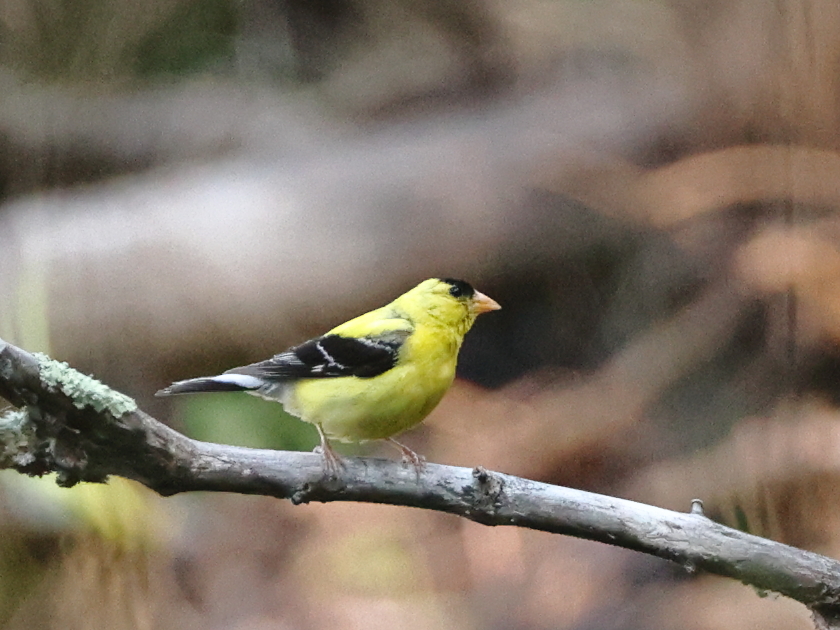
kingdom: Animalia
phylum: Chordata
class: Aves
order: Passeriformes
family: Fringillidae
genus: Spinus
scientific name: Spinus tristis
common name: American goldfinch
